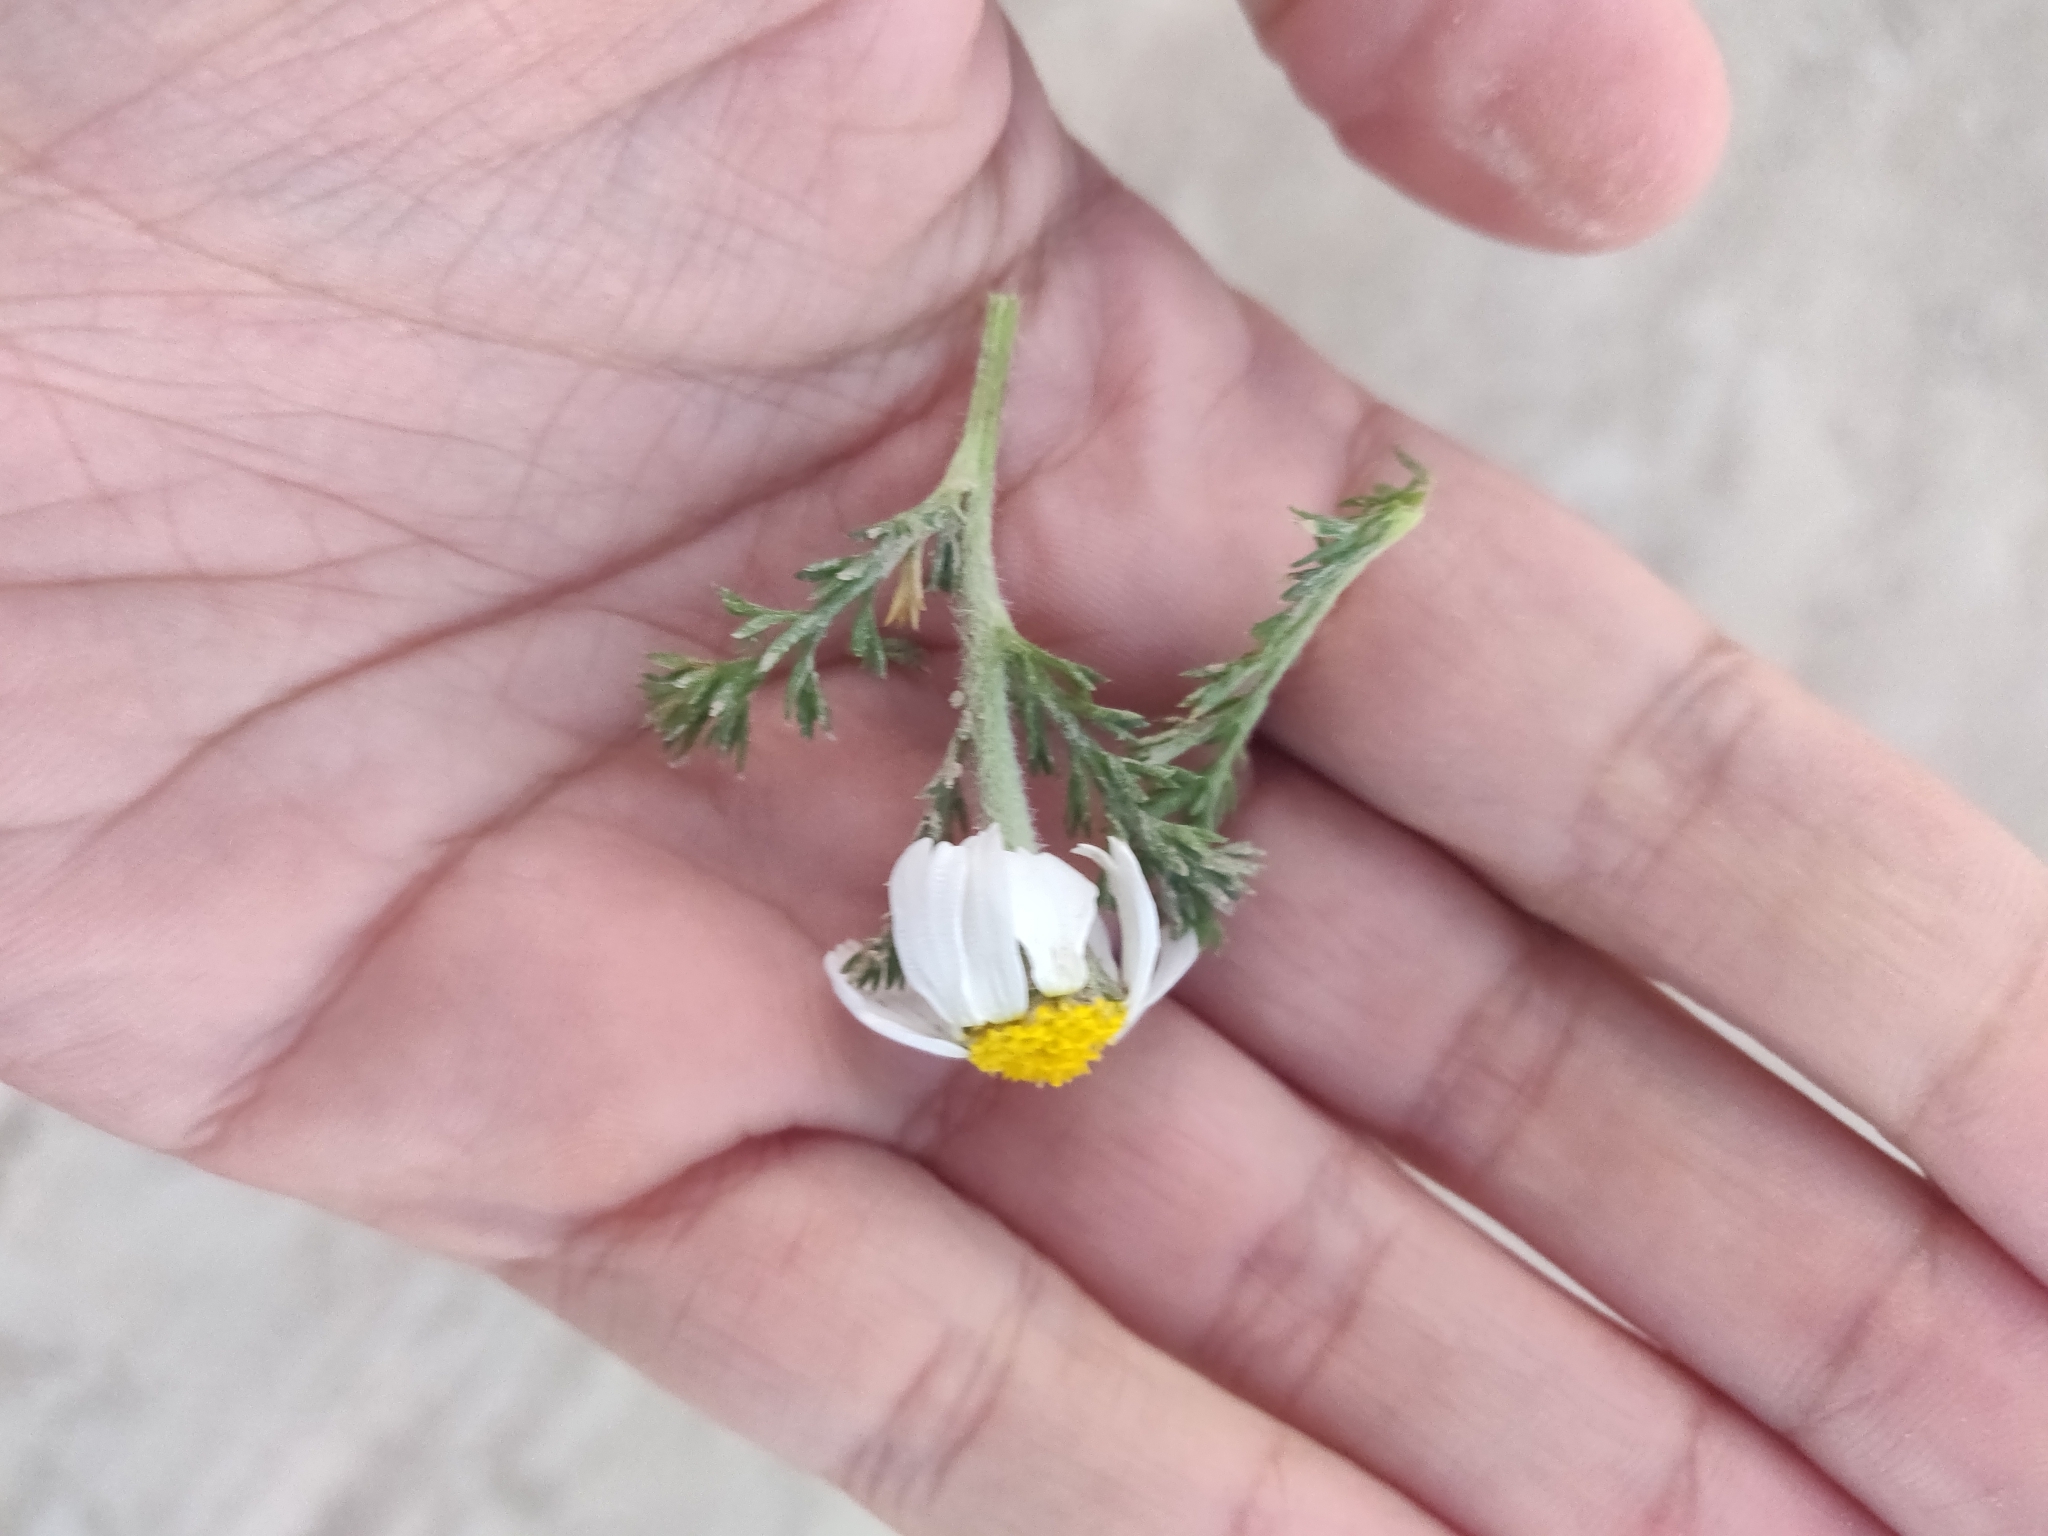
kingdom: Plantae
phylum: Tracheophyta
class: Magnoliopsida
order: Asterales
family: Asteraceae
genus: Anacyclus
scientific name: Anacyclus clavatus
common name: Whitebuttons
